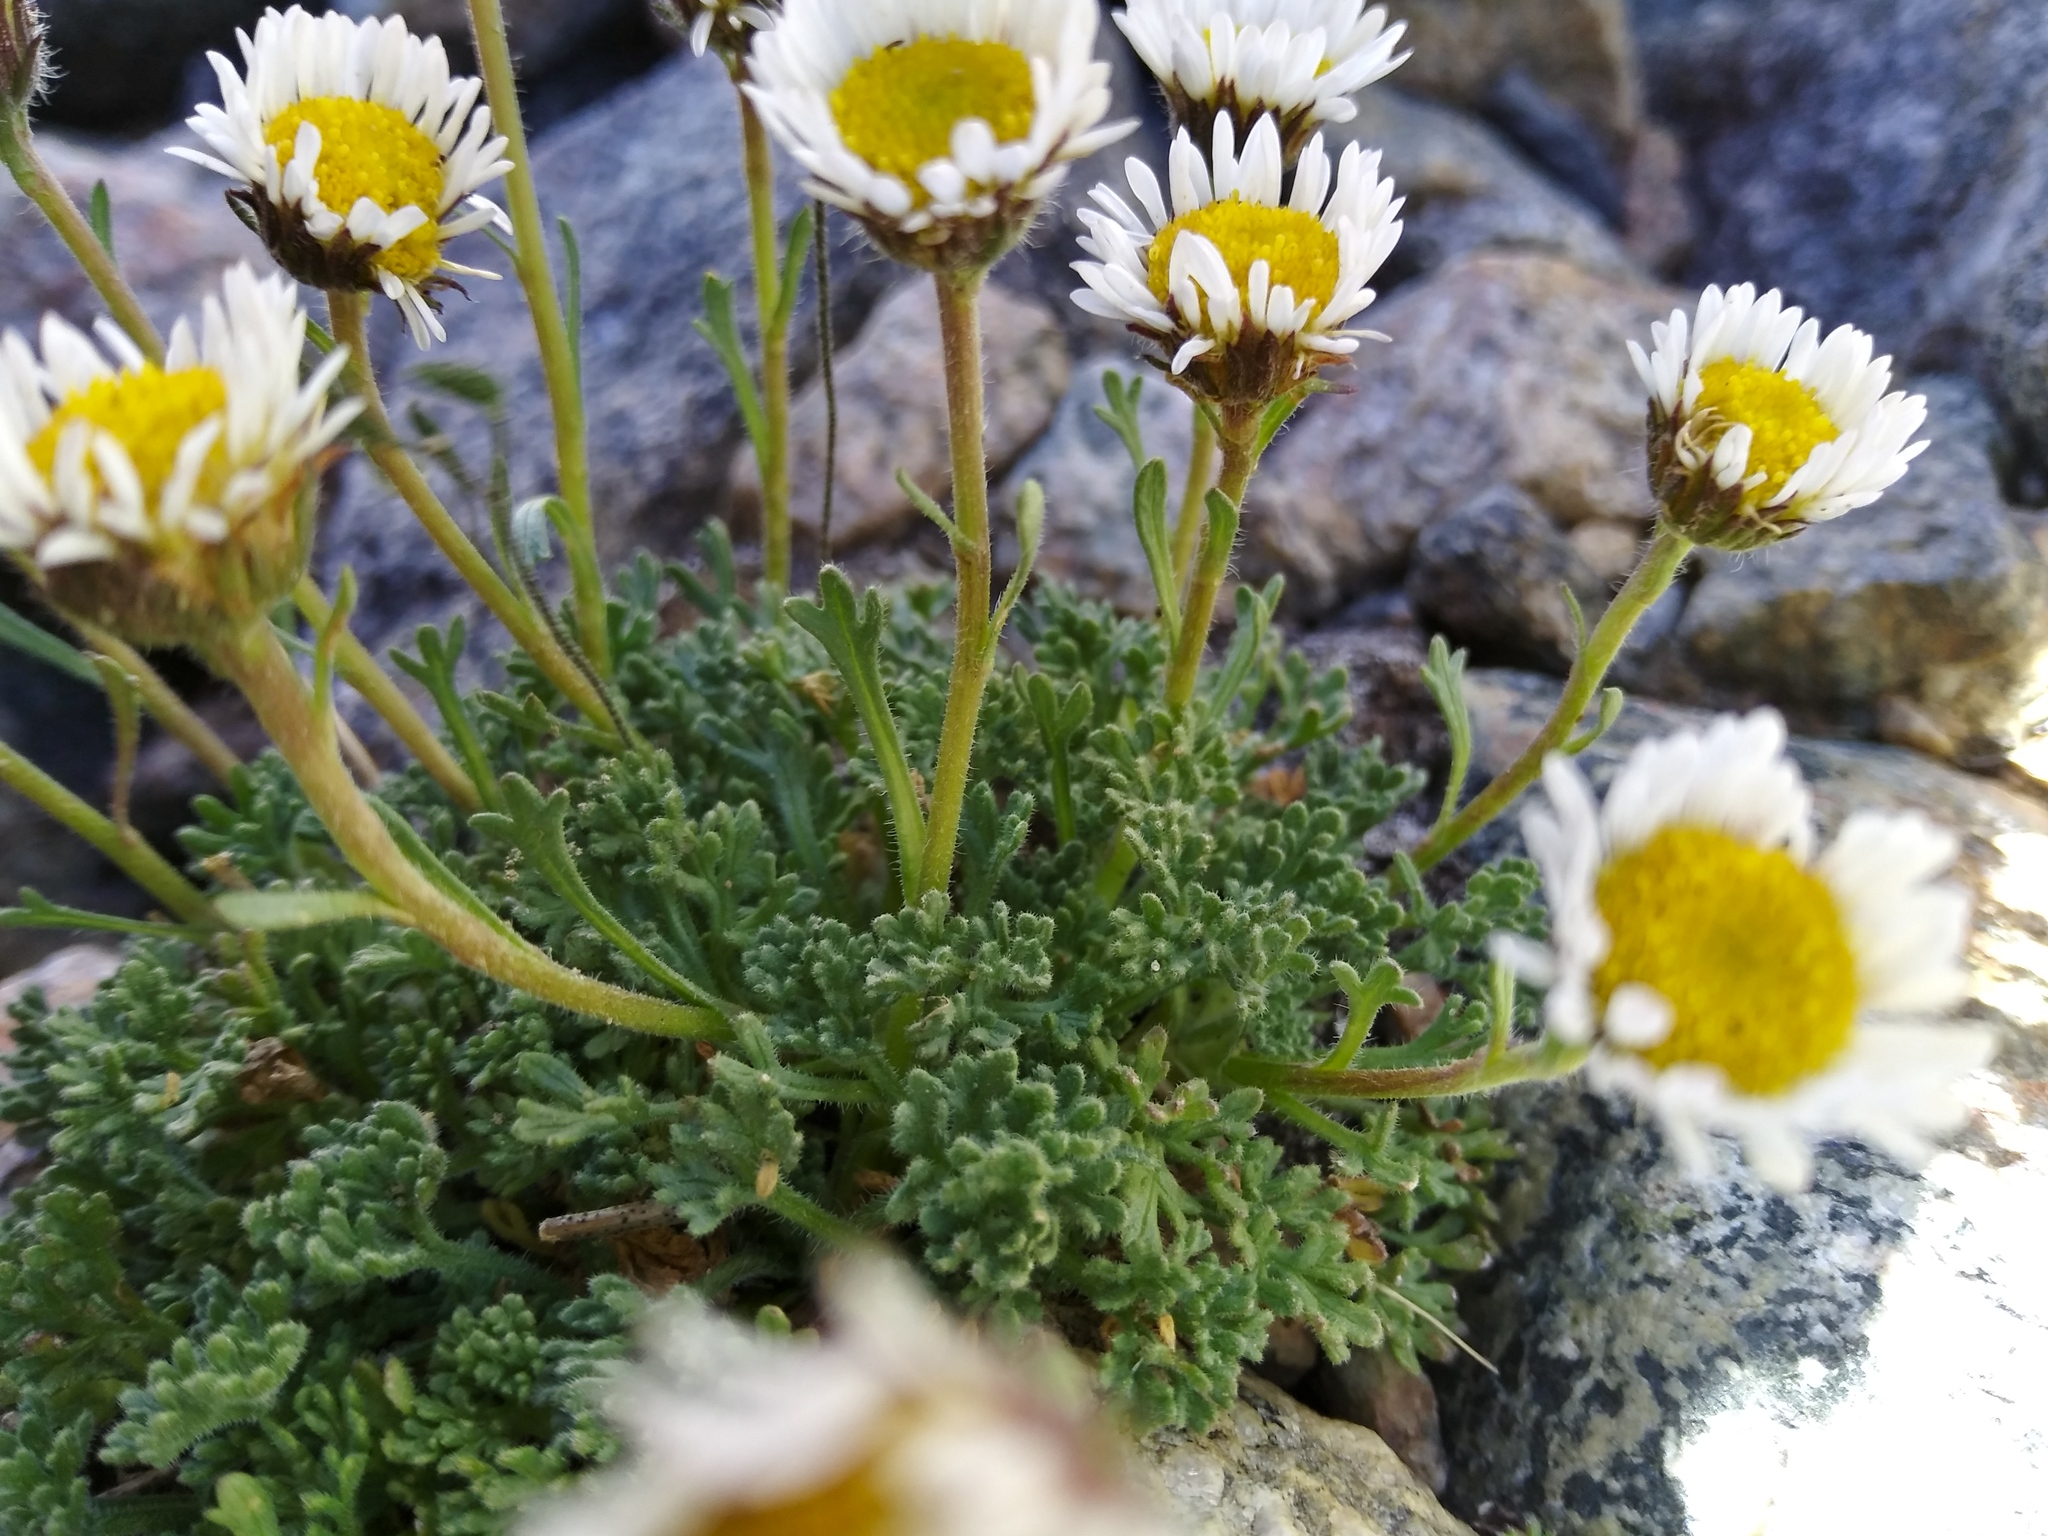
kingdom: Plantae
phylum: Tracheophyta
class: Magnoliopsida
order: Asterales
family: Asteraceae
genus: Erigeron
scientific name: Erigeron compositus
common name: Dwarf mountain fleabane
